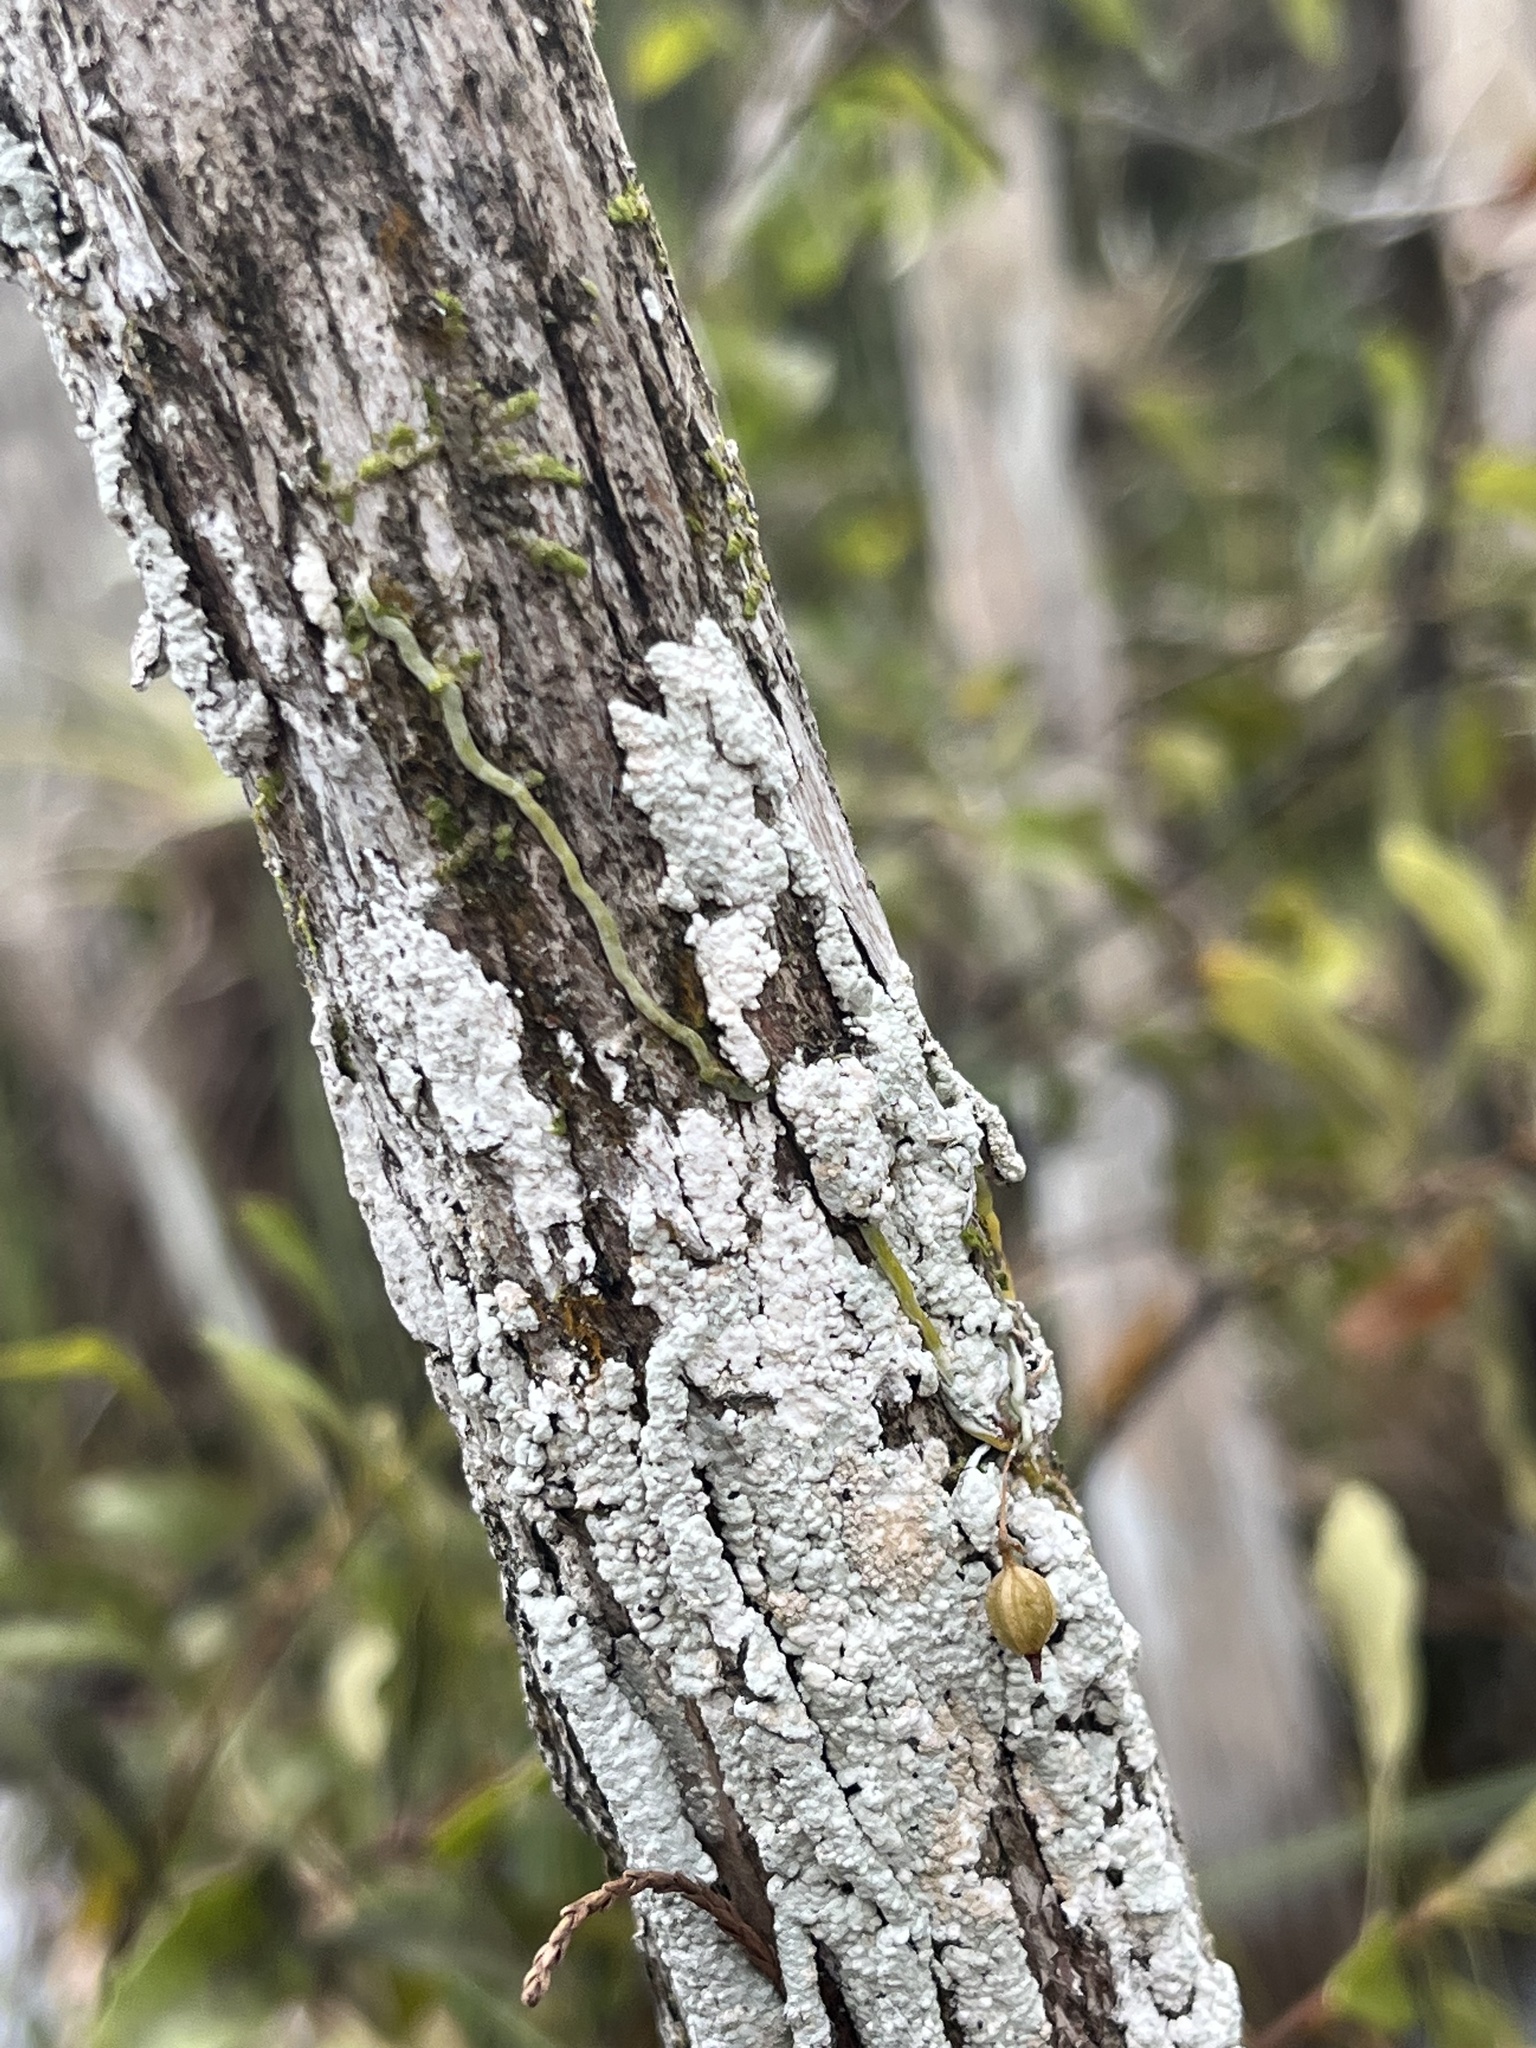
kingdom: Plantae
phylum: Tracheophyta
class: Liliopsida
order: Asparagales
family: Orchidaceae
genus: Dendrophylax
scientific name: Dendrophylax porrectus
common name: Needleroot airplant orchid
